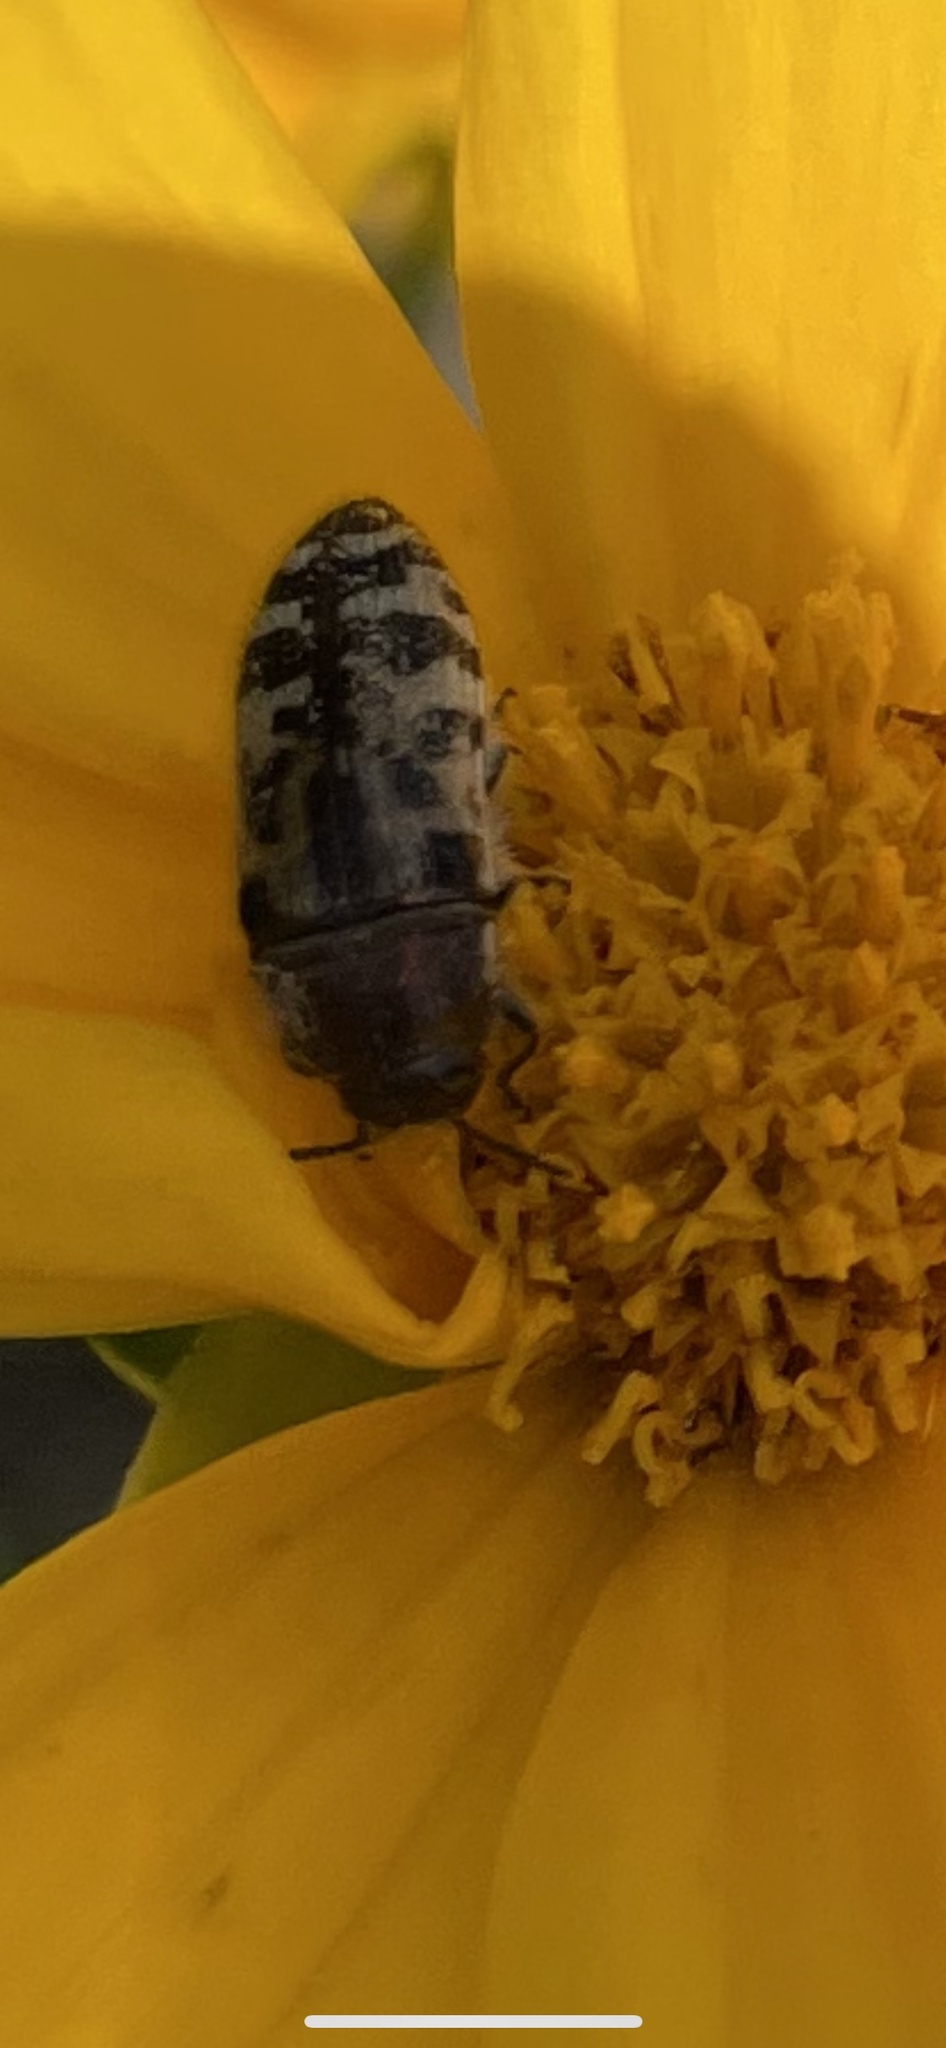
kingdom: Animalia
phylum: Arthropoda
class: Insecta
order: Coleoptera
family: Buprestidae
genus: Acmaeodera
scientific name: Acmaeodera mixta
